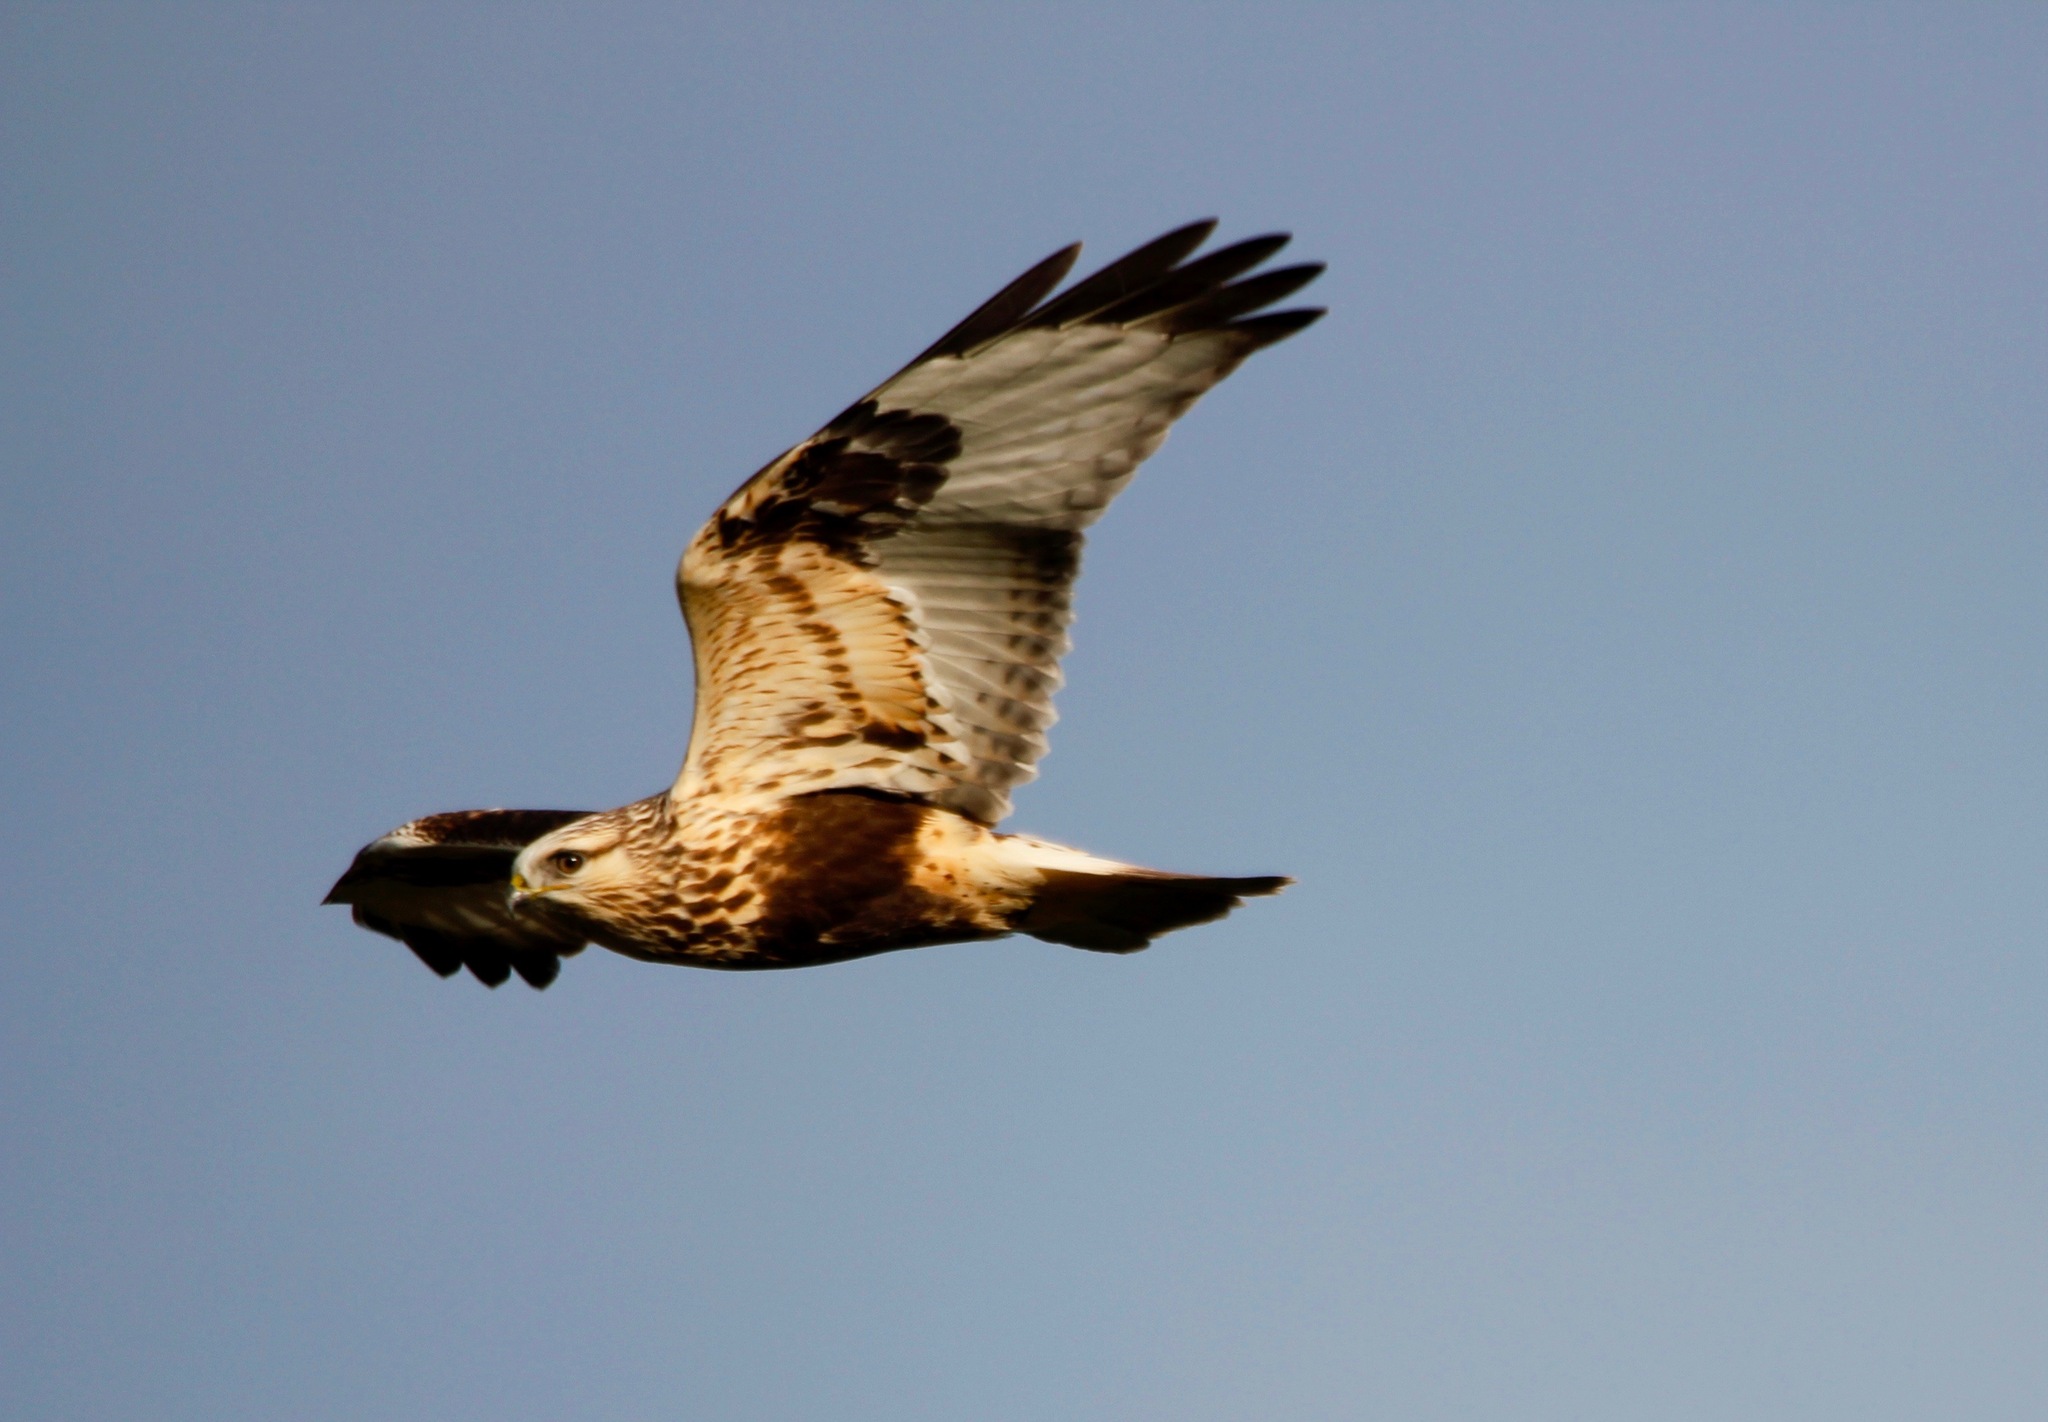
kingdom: Animalia
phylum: Chordata
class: Aves
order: Accipitriformes
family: Accipitridae
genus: Buteo
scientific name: Buteo lagopus
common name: Rough-legged buzzard
